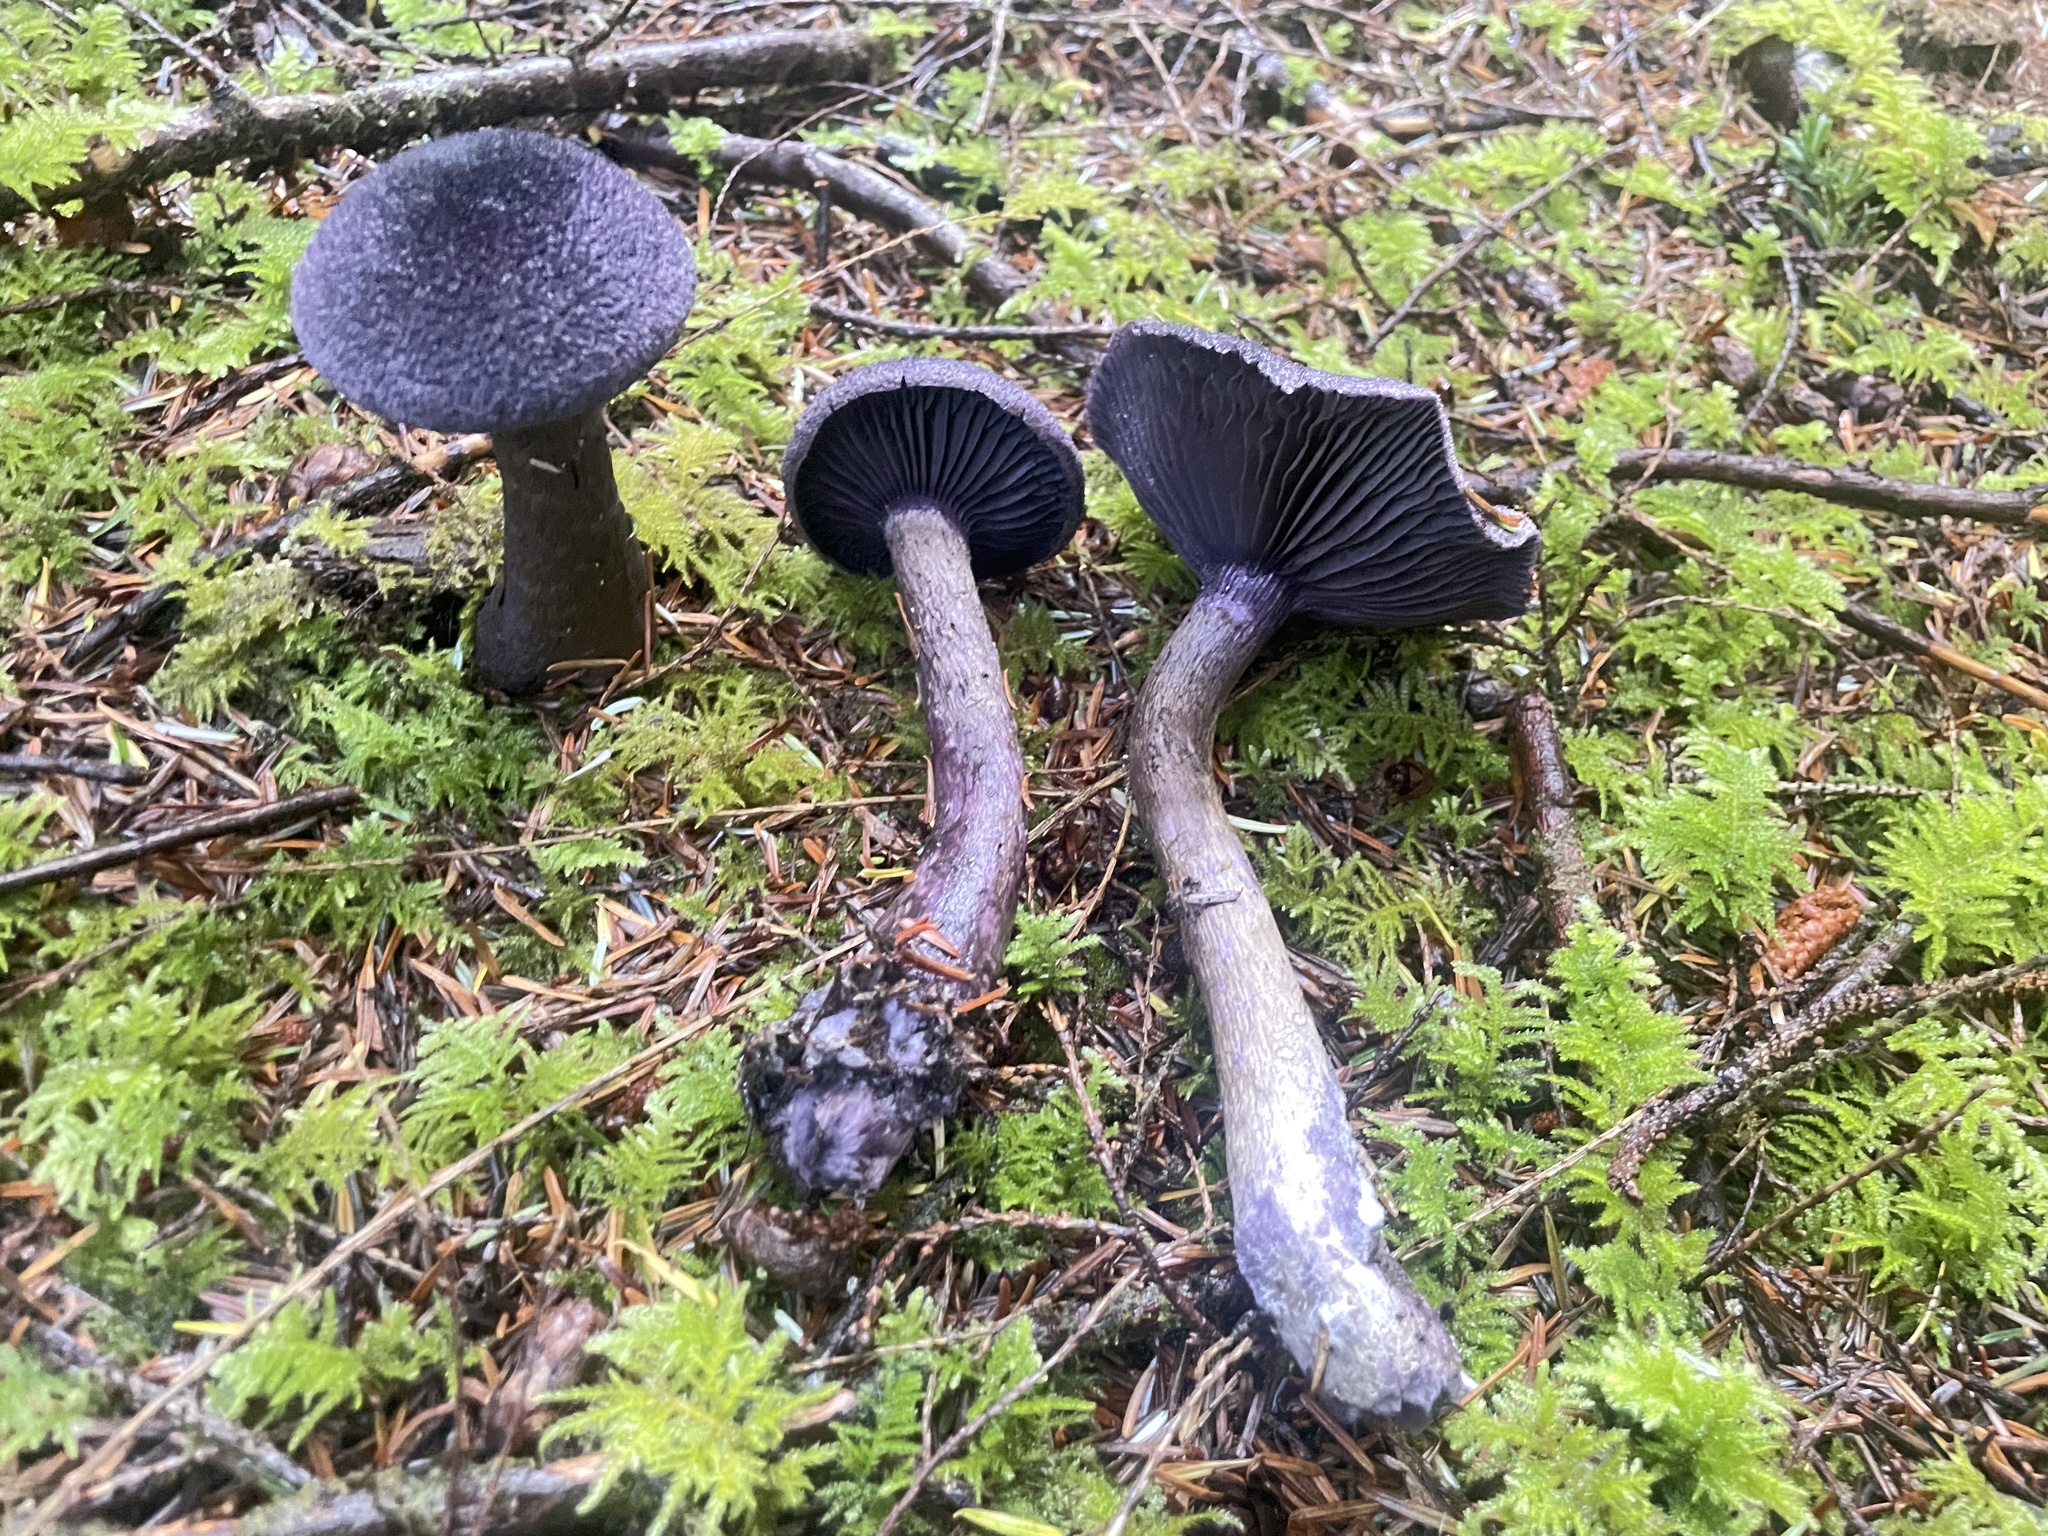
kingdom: Fungi
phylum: Basidiomycota
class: Agaricomycetes
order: Agaricales
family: Cortinariaceae
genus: Cortinarius
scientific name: Cortinarius violaceus
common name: Violet webcap
